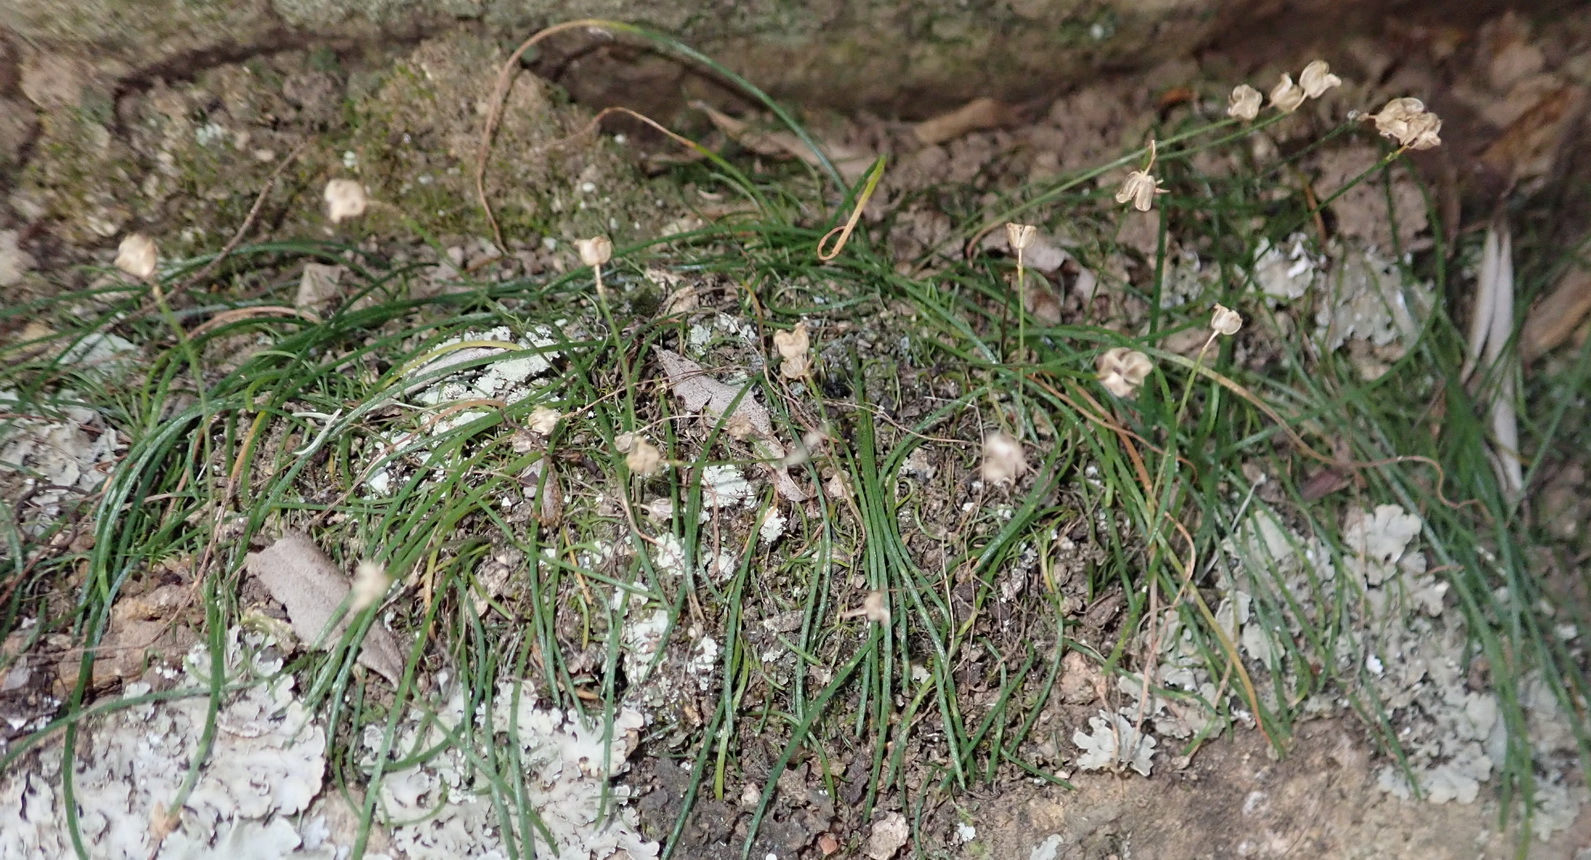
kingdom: Plantae
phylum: Tracheophyta
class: Liliopsida
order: Asparagales
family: Asparagaceae
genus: Drimia
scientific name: Drimia uniflora
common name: Fairy bell
